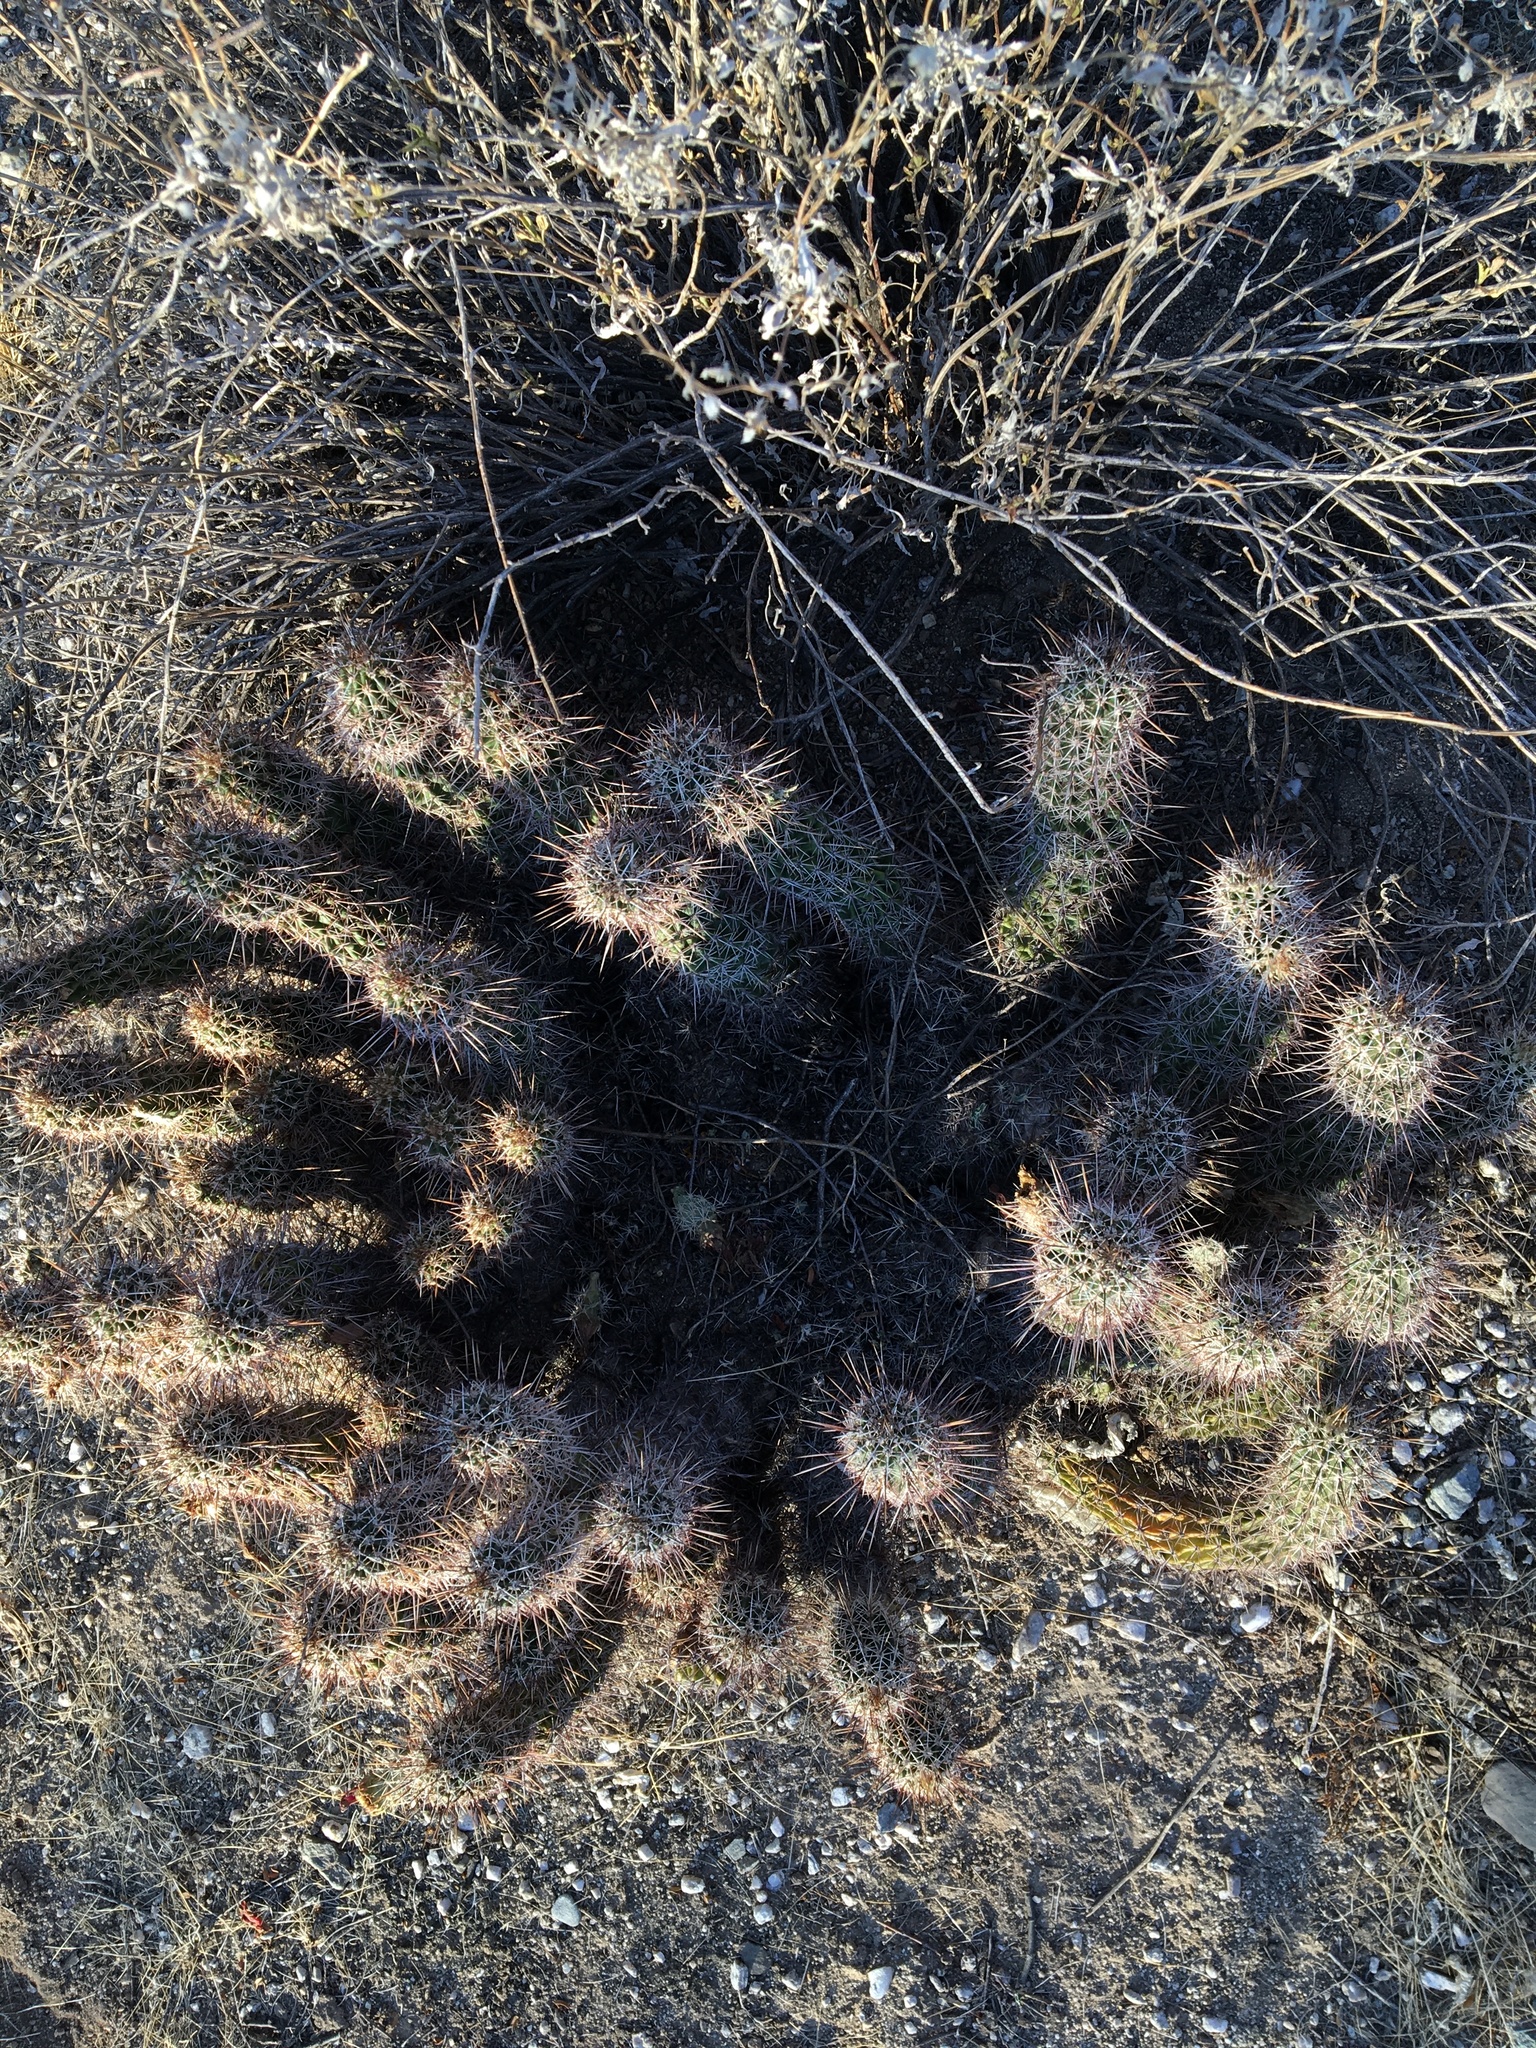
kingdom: Plantae
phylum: Tracheophyta
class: Magnoliopsida
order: Caryophyllales
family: Cactaceae
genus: Echinocereus
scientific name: Echinocereus fasciculatus
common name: Bundle hedgehog
